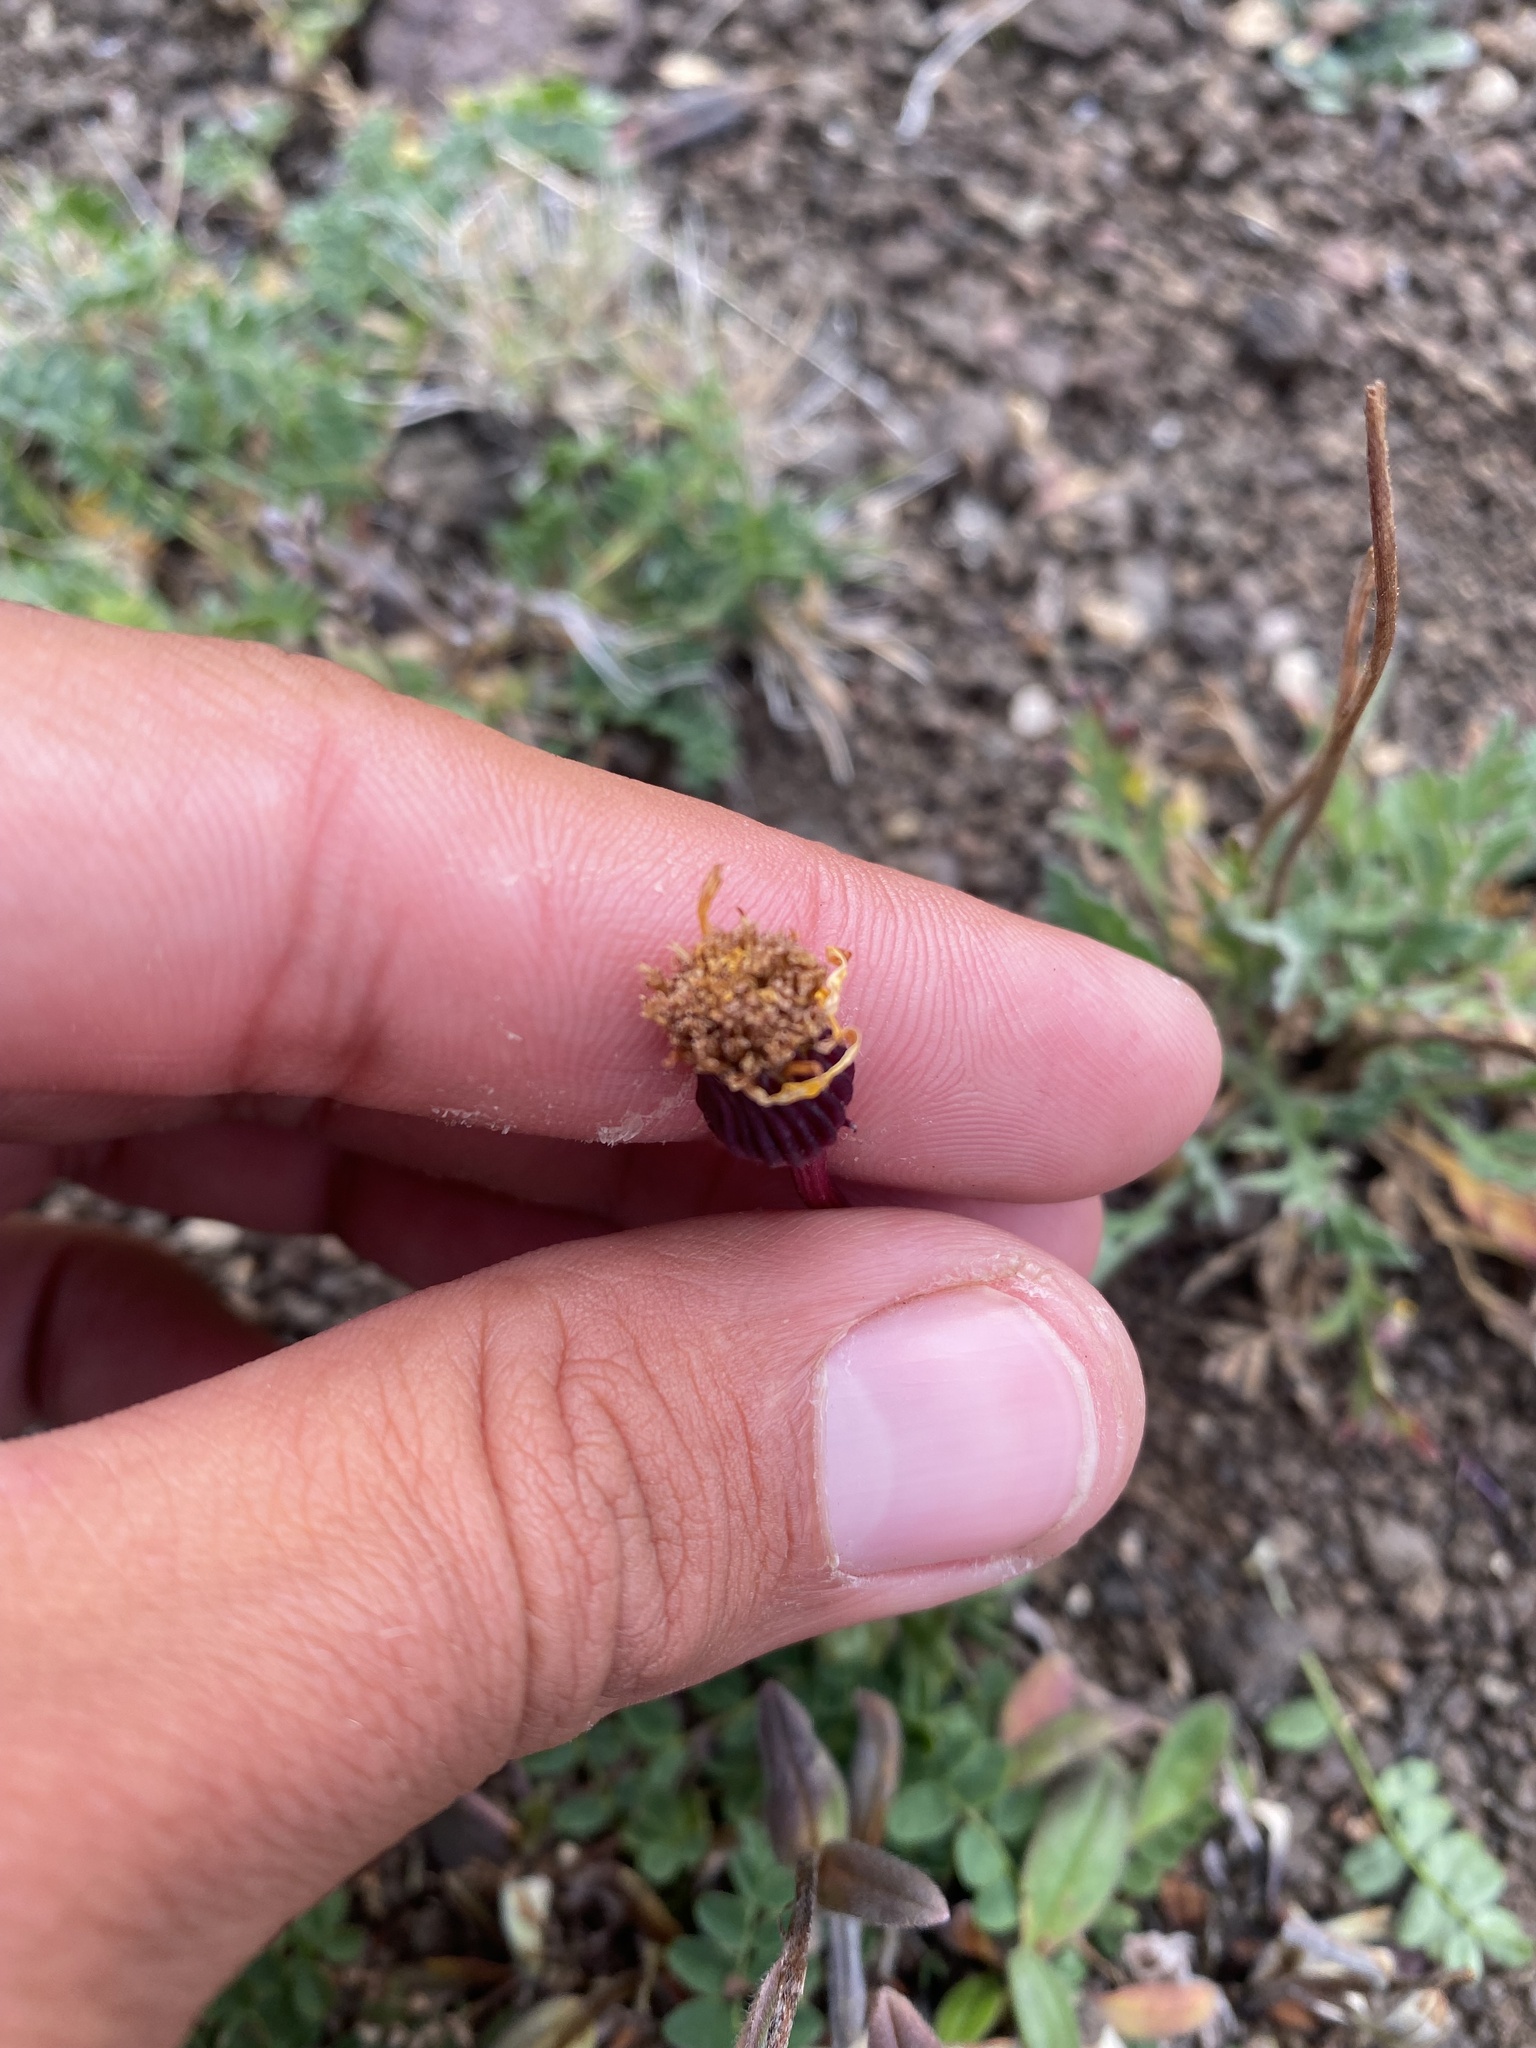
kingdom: Plantae
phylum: Tracheophyta
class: Magnoliopsida
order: Asterales
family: Asteraceae
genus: Packera
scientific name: Packera heterophylla
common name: Arctic butterweed
